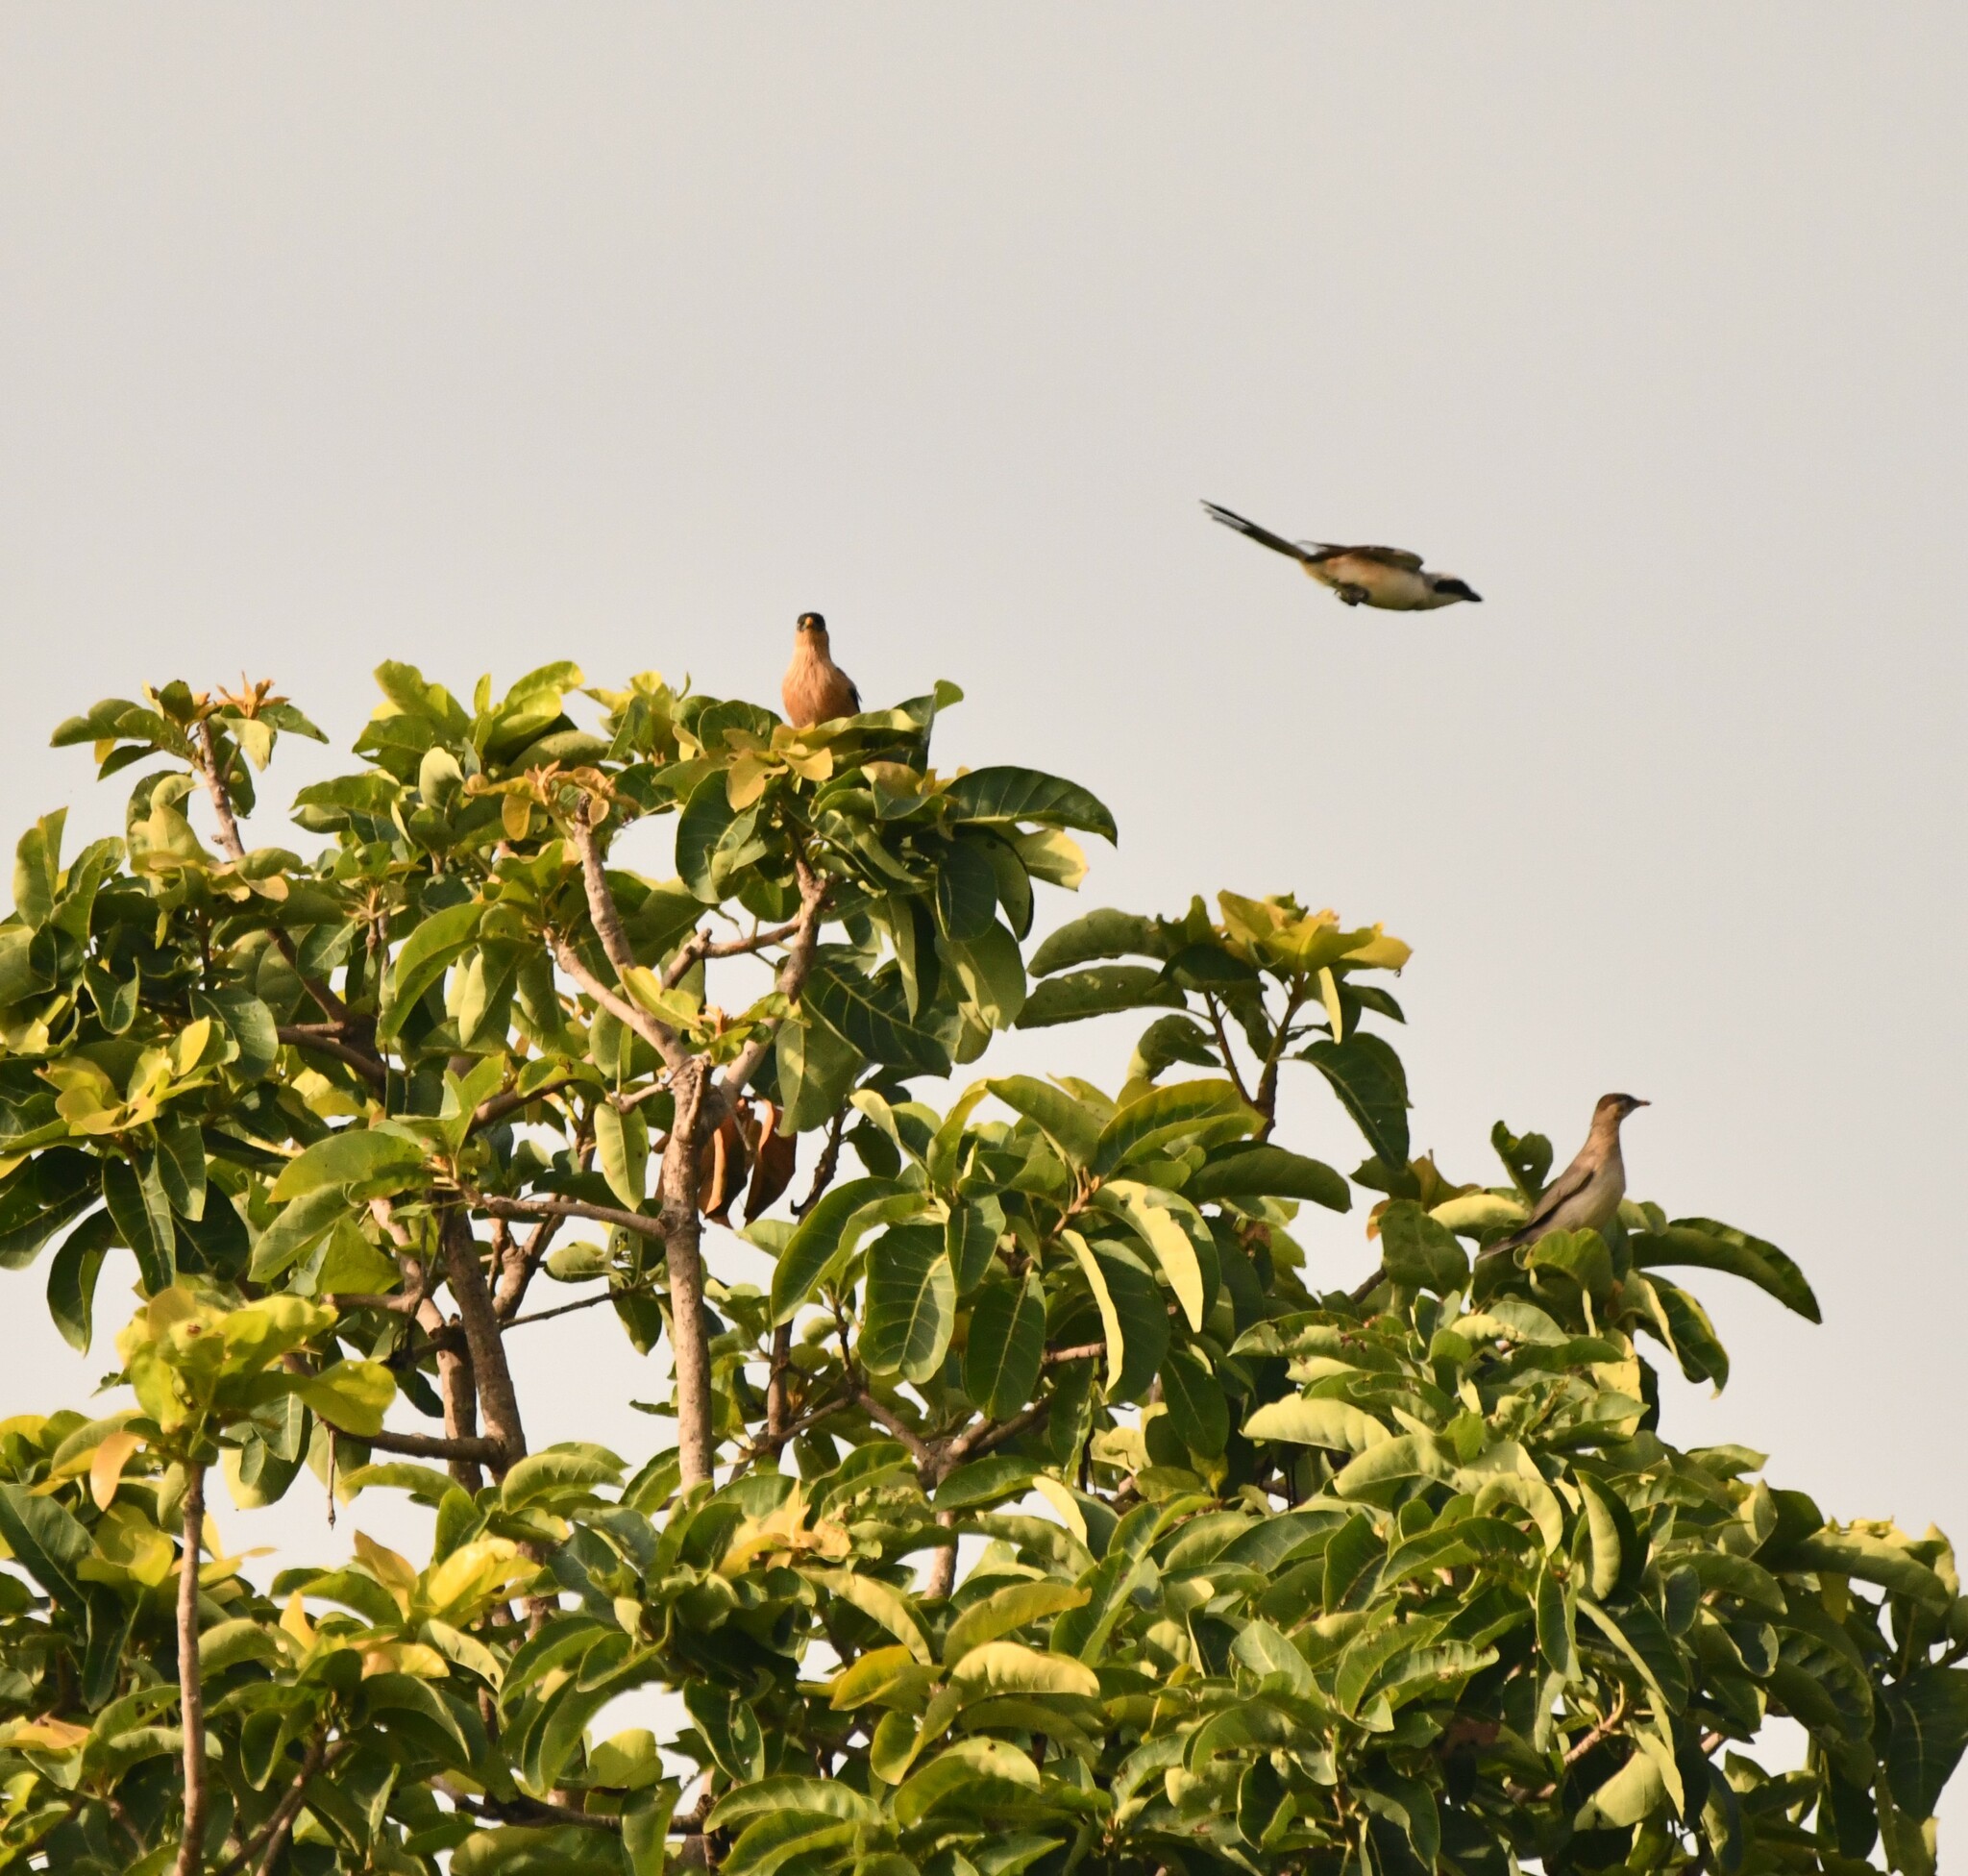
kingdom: Animalia
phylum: Chordata
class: Aves
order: Passeriformes
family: Sturnidae
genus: Sturnia
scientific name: Sturnia pagodarum
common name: Brahminy starling
